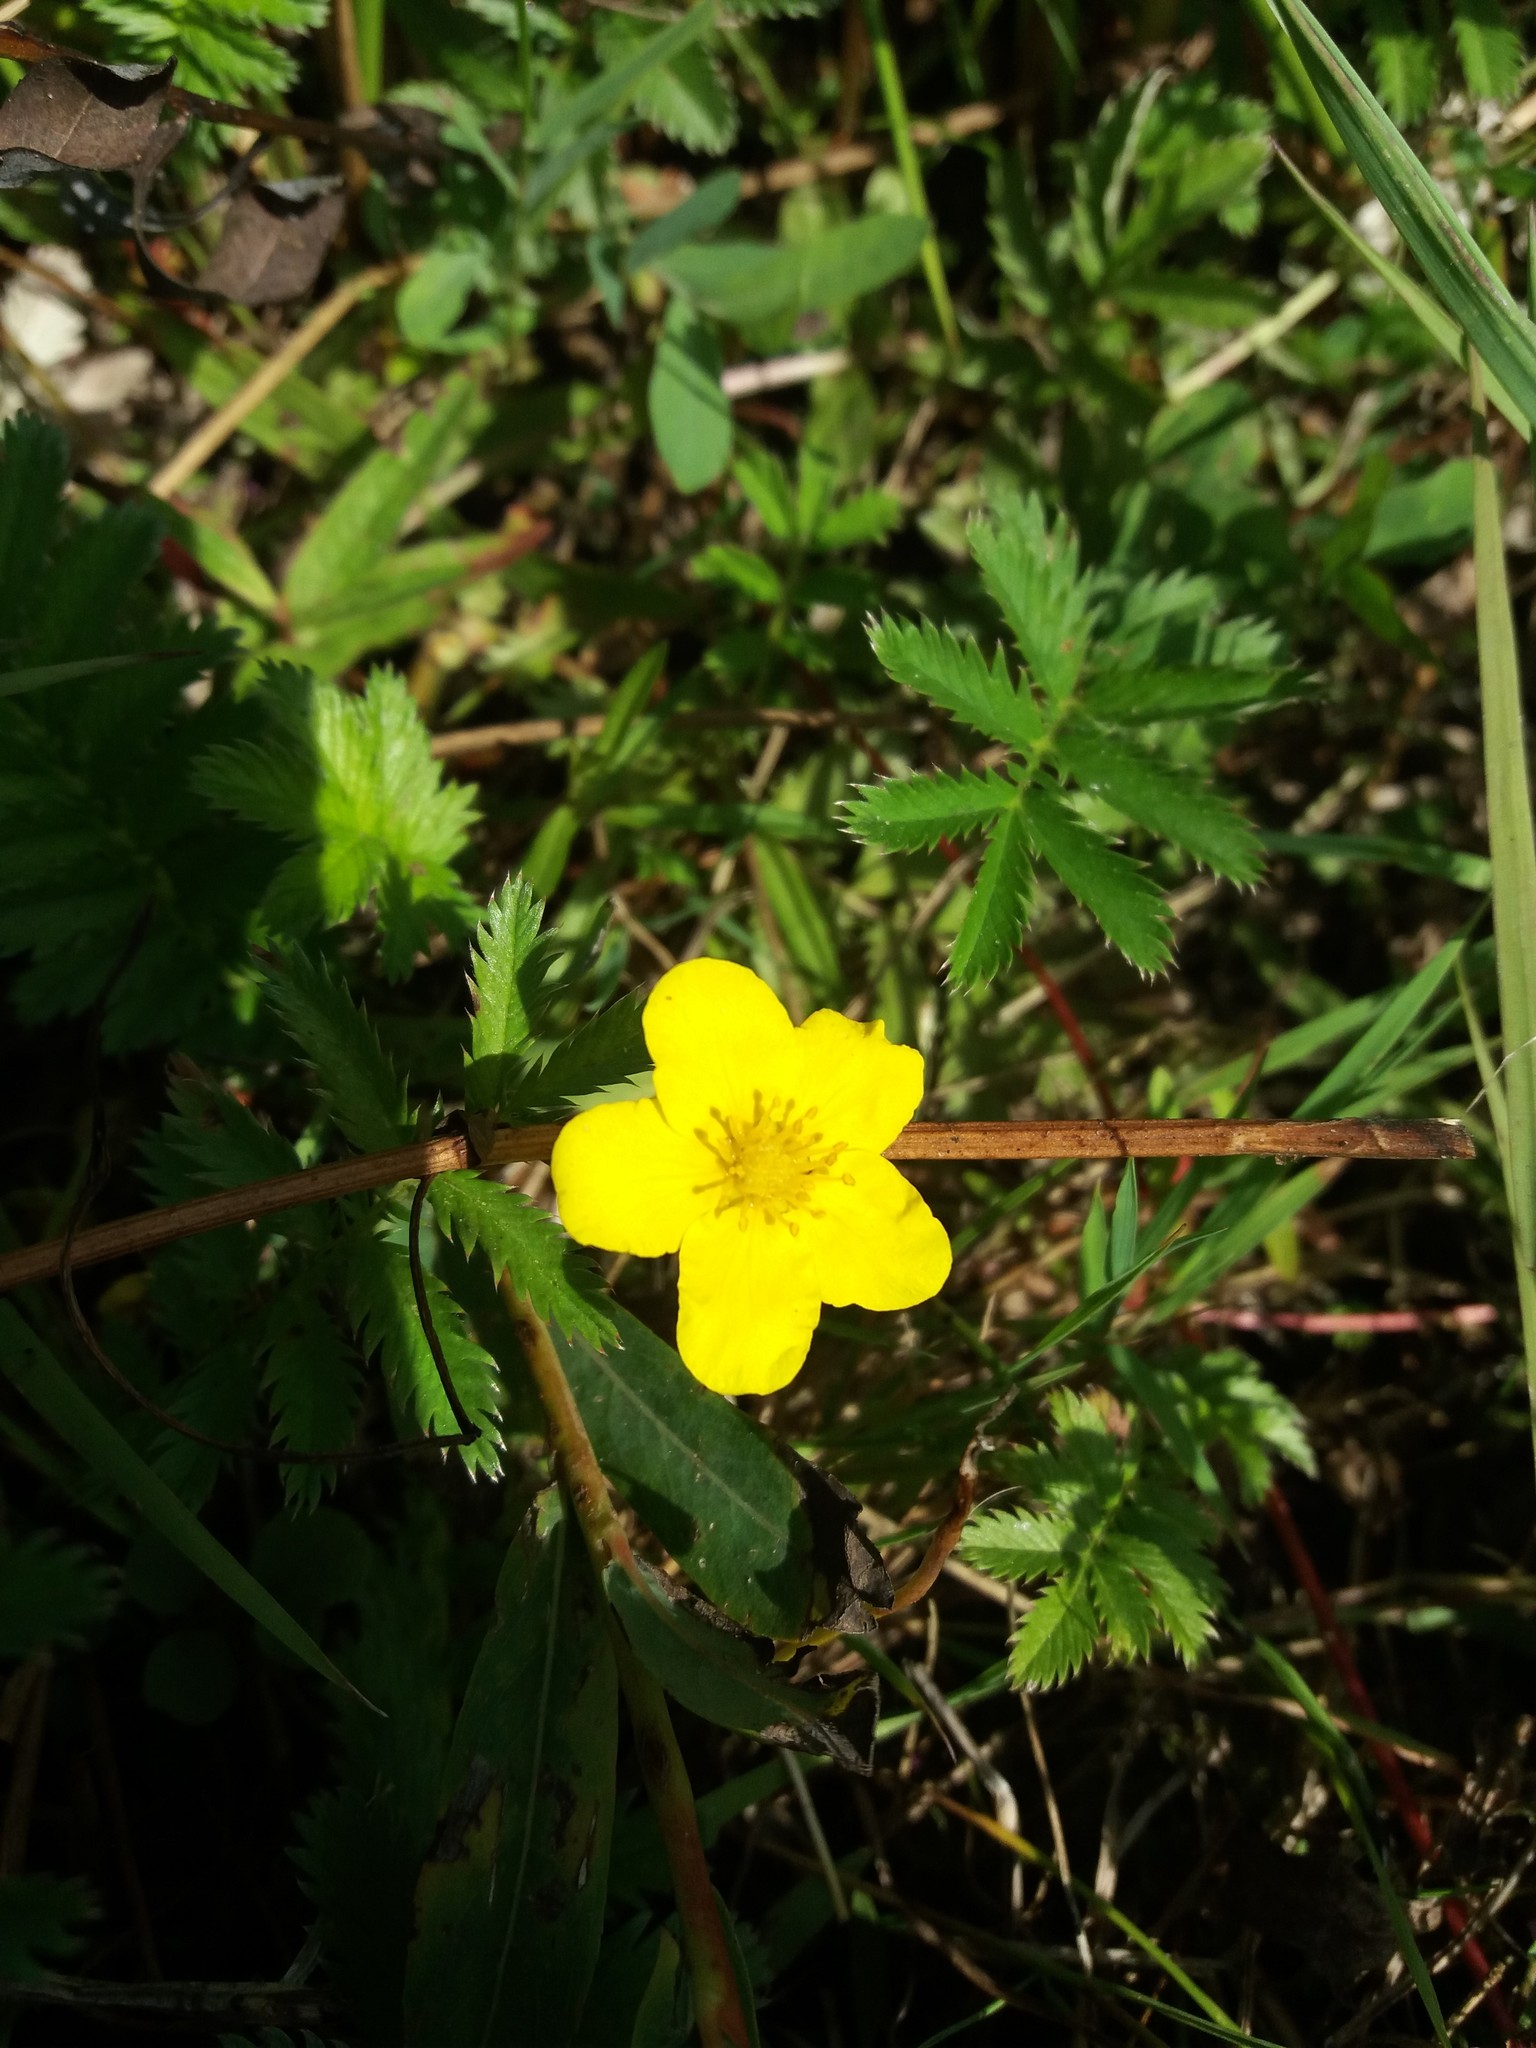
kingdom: Plantae
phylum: Tracheophyta
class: Magnoliopsida
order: Rosales
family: Rosaceae
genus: Argentina
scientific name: Argentina anserina
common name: Common silverweed
